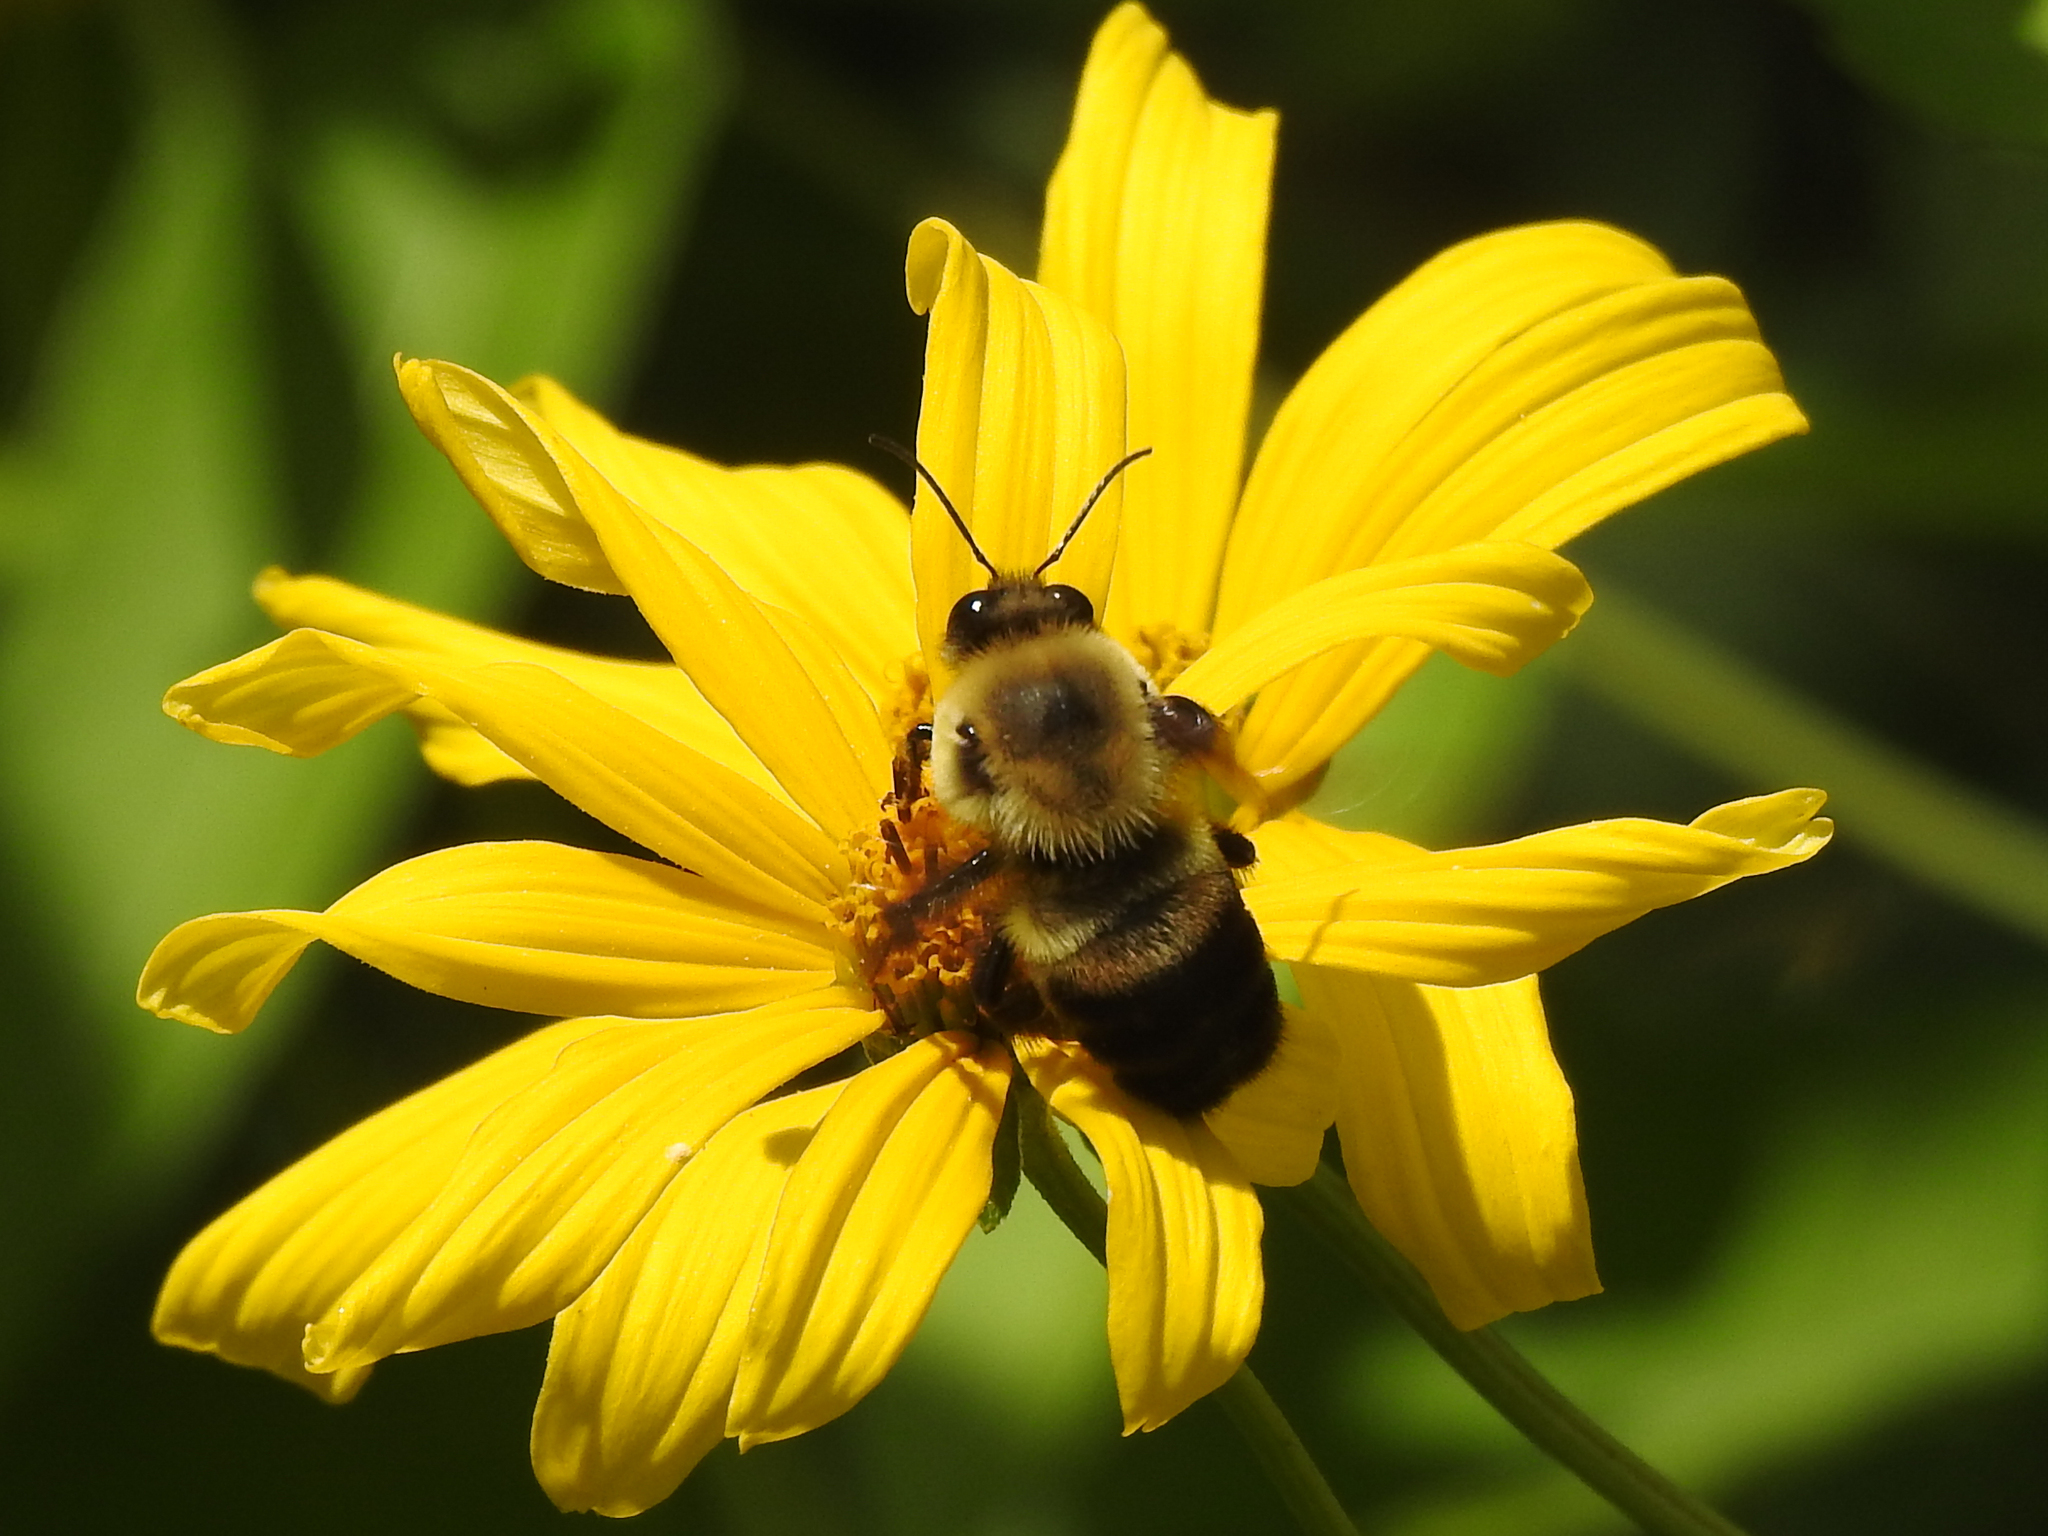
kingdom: Animalia
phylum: Arthropoda
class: Insecta
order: Hymenoptera
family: Apidae
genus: Bombus
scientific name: Bombus griseocollis
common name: Brown-belted bumble bee
